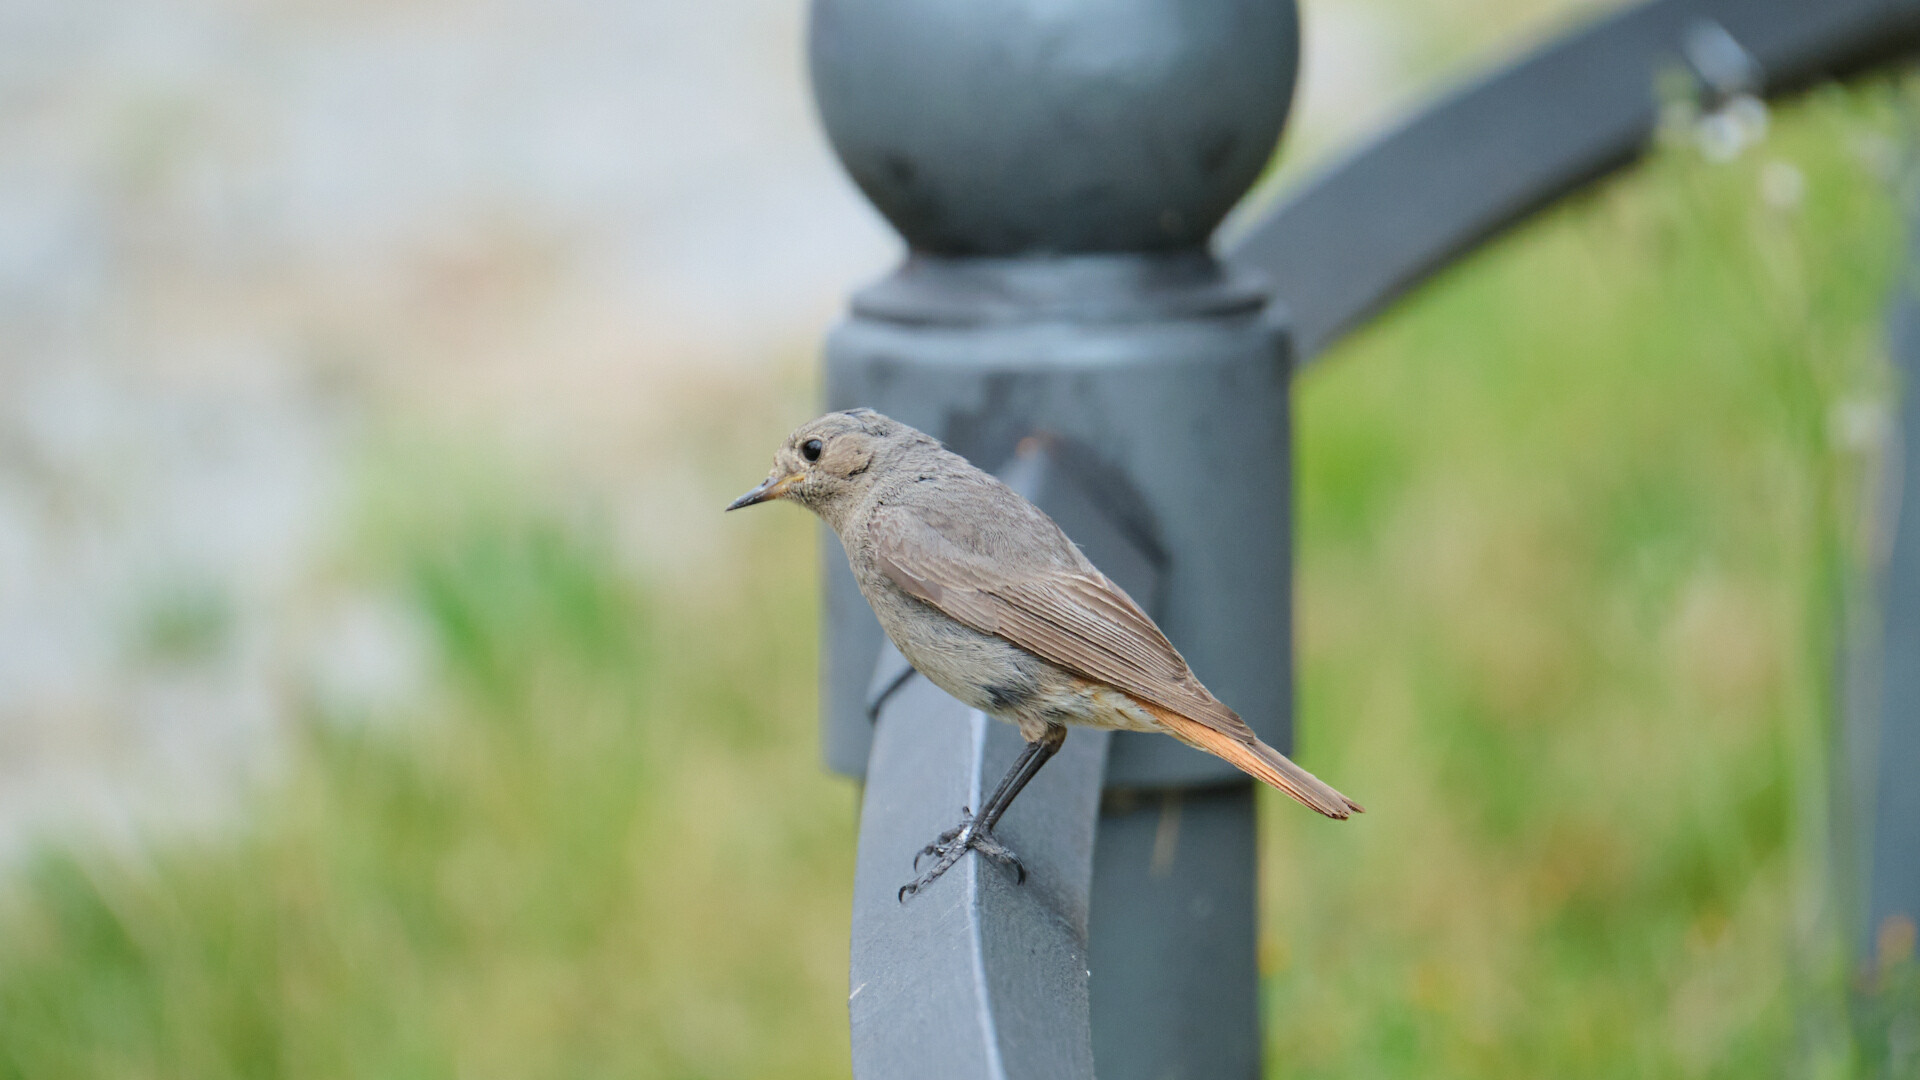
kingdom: Animalia
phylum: Chordata
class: Aves
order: Passeriformes
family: Muscicapidae
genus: Phoenicurus
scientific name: Phoenicurus ochruros
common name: Black redstart
